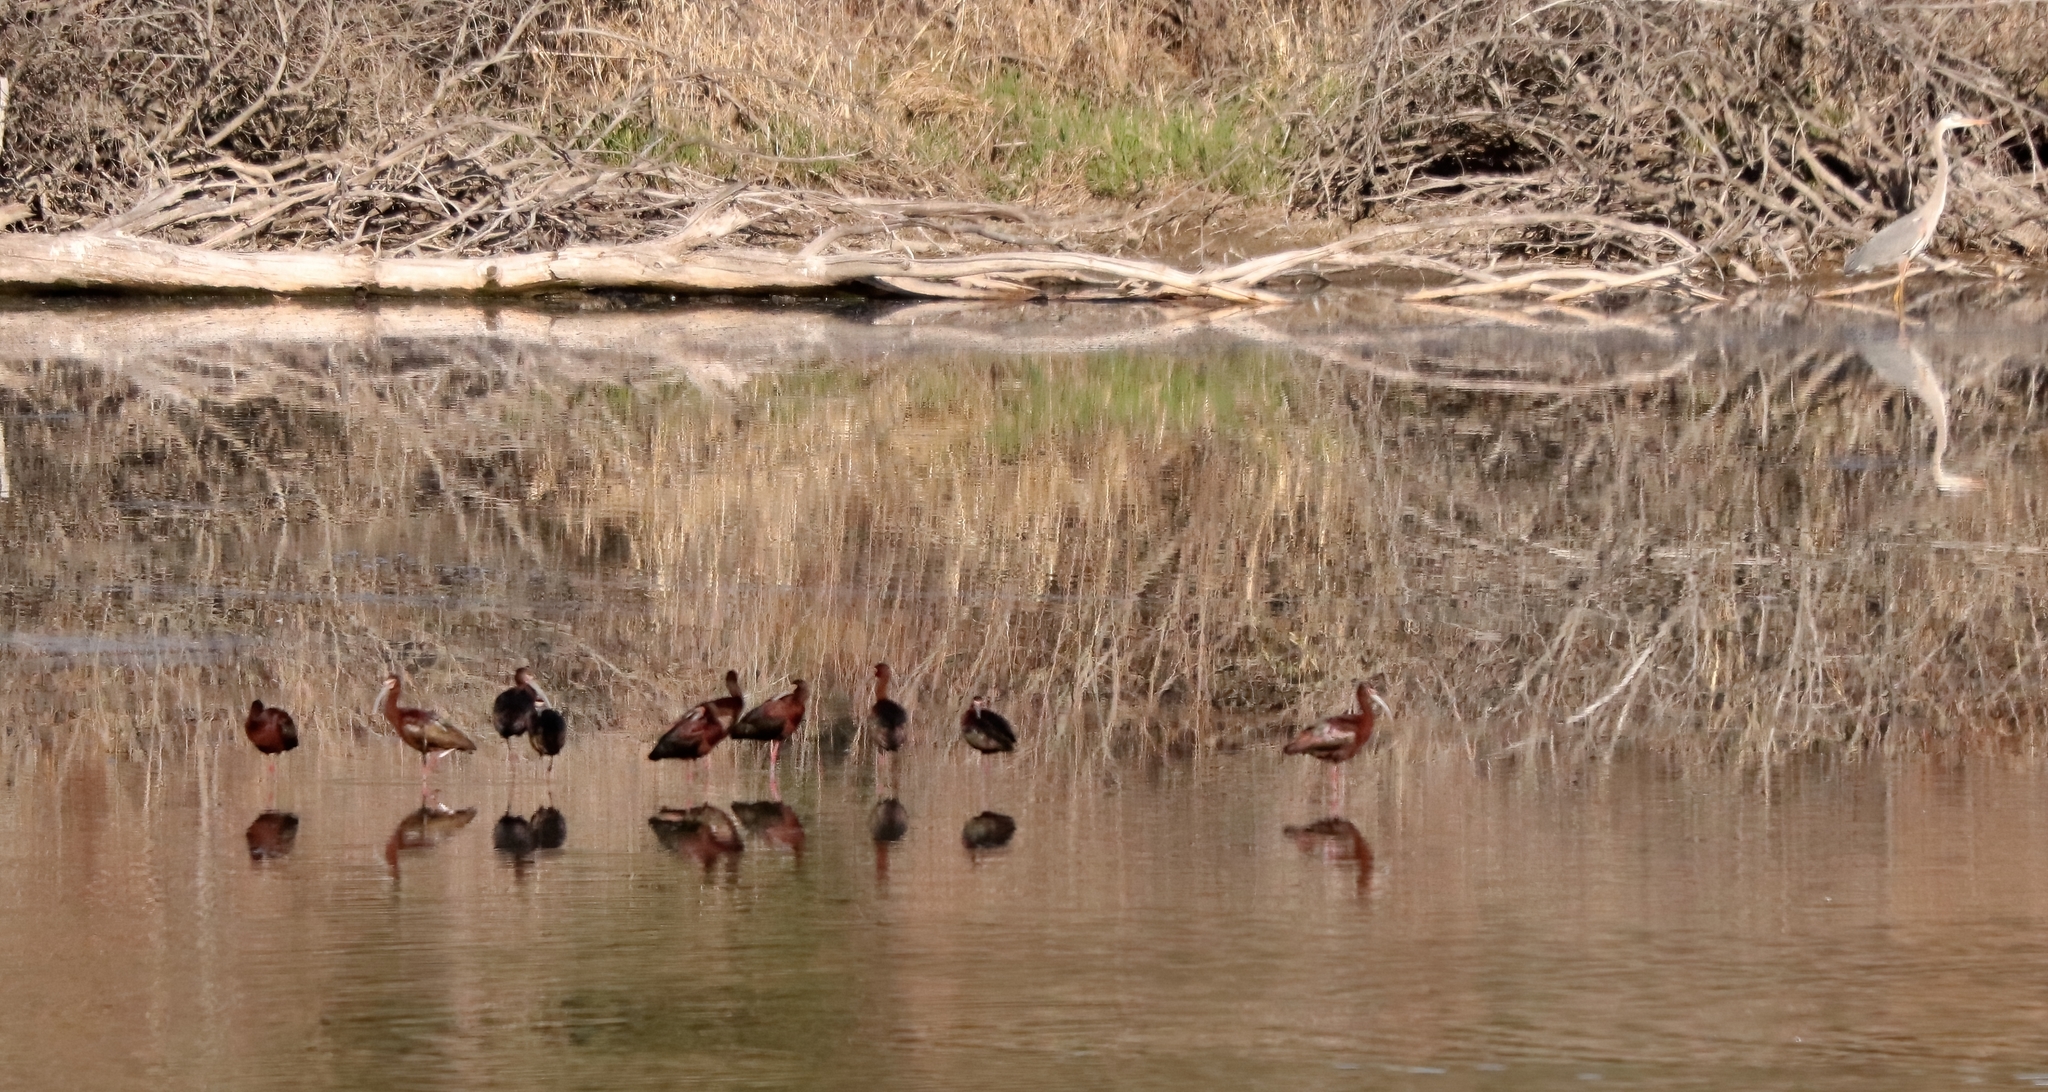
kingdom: Animalia
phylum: Chordata
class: Aves
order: Pelecaniformes
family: Threskiornithidae
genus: Plegadis
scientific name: Plegadis chihi
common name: White-faced ibis
